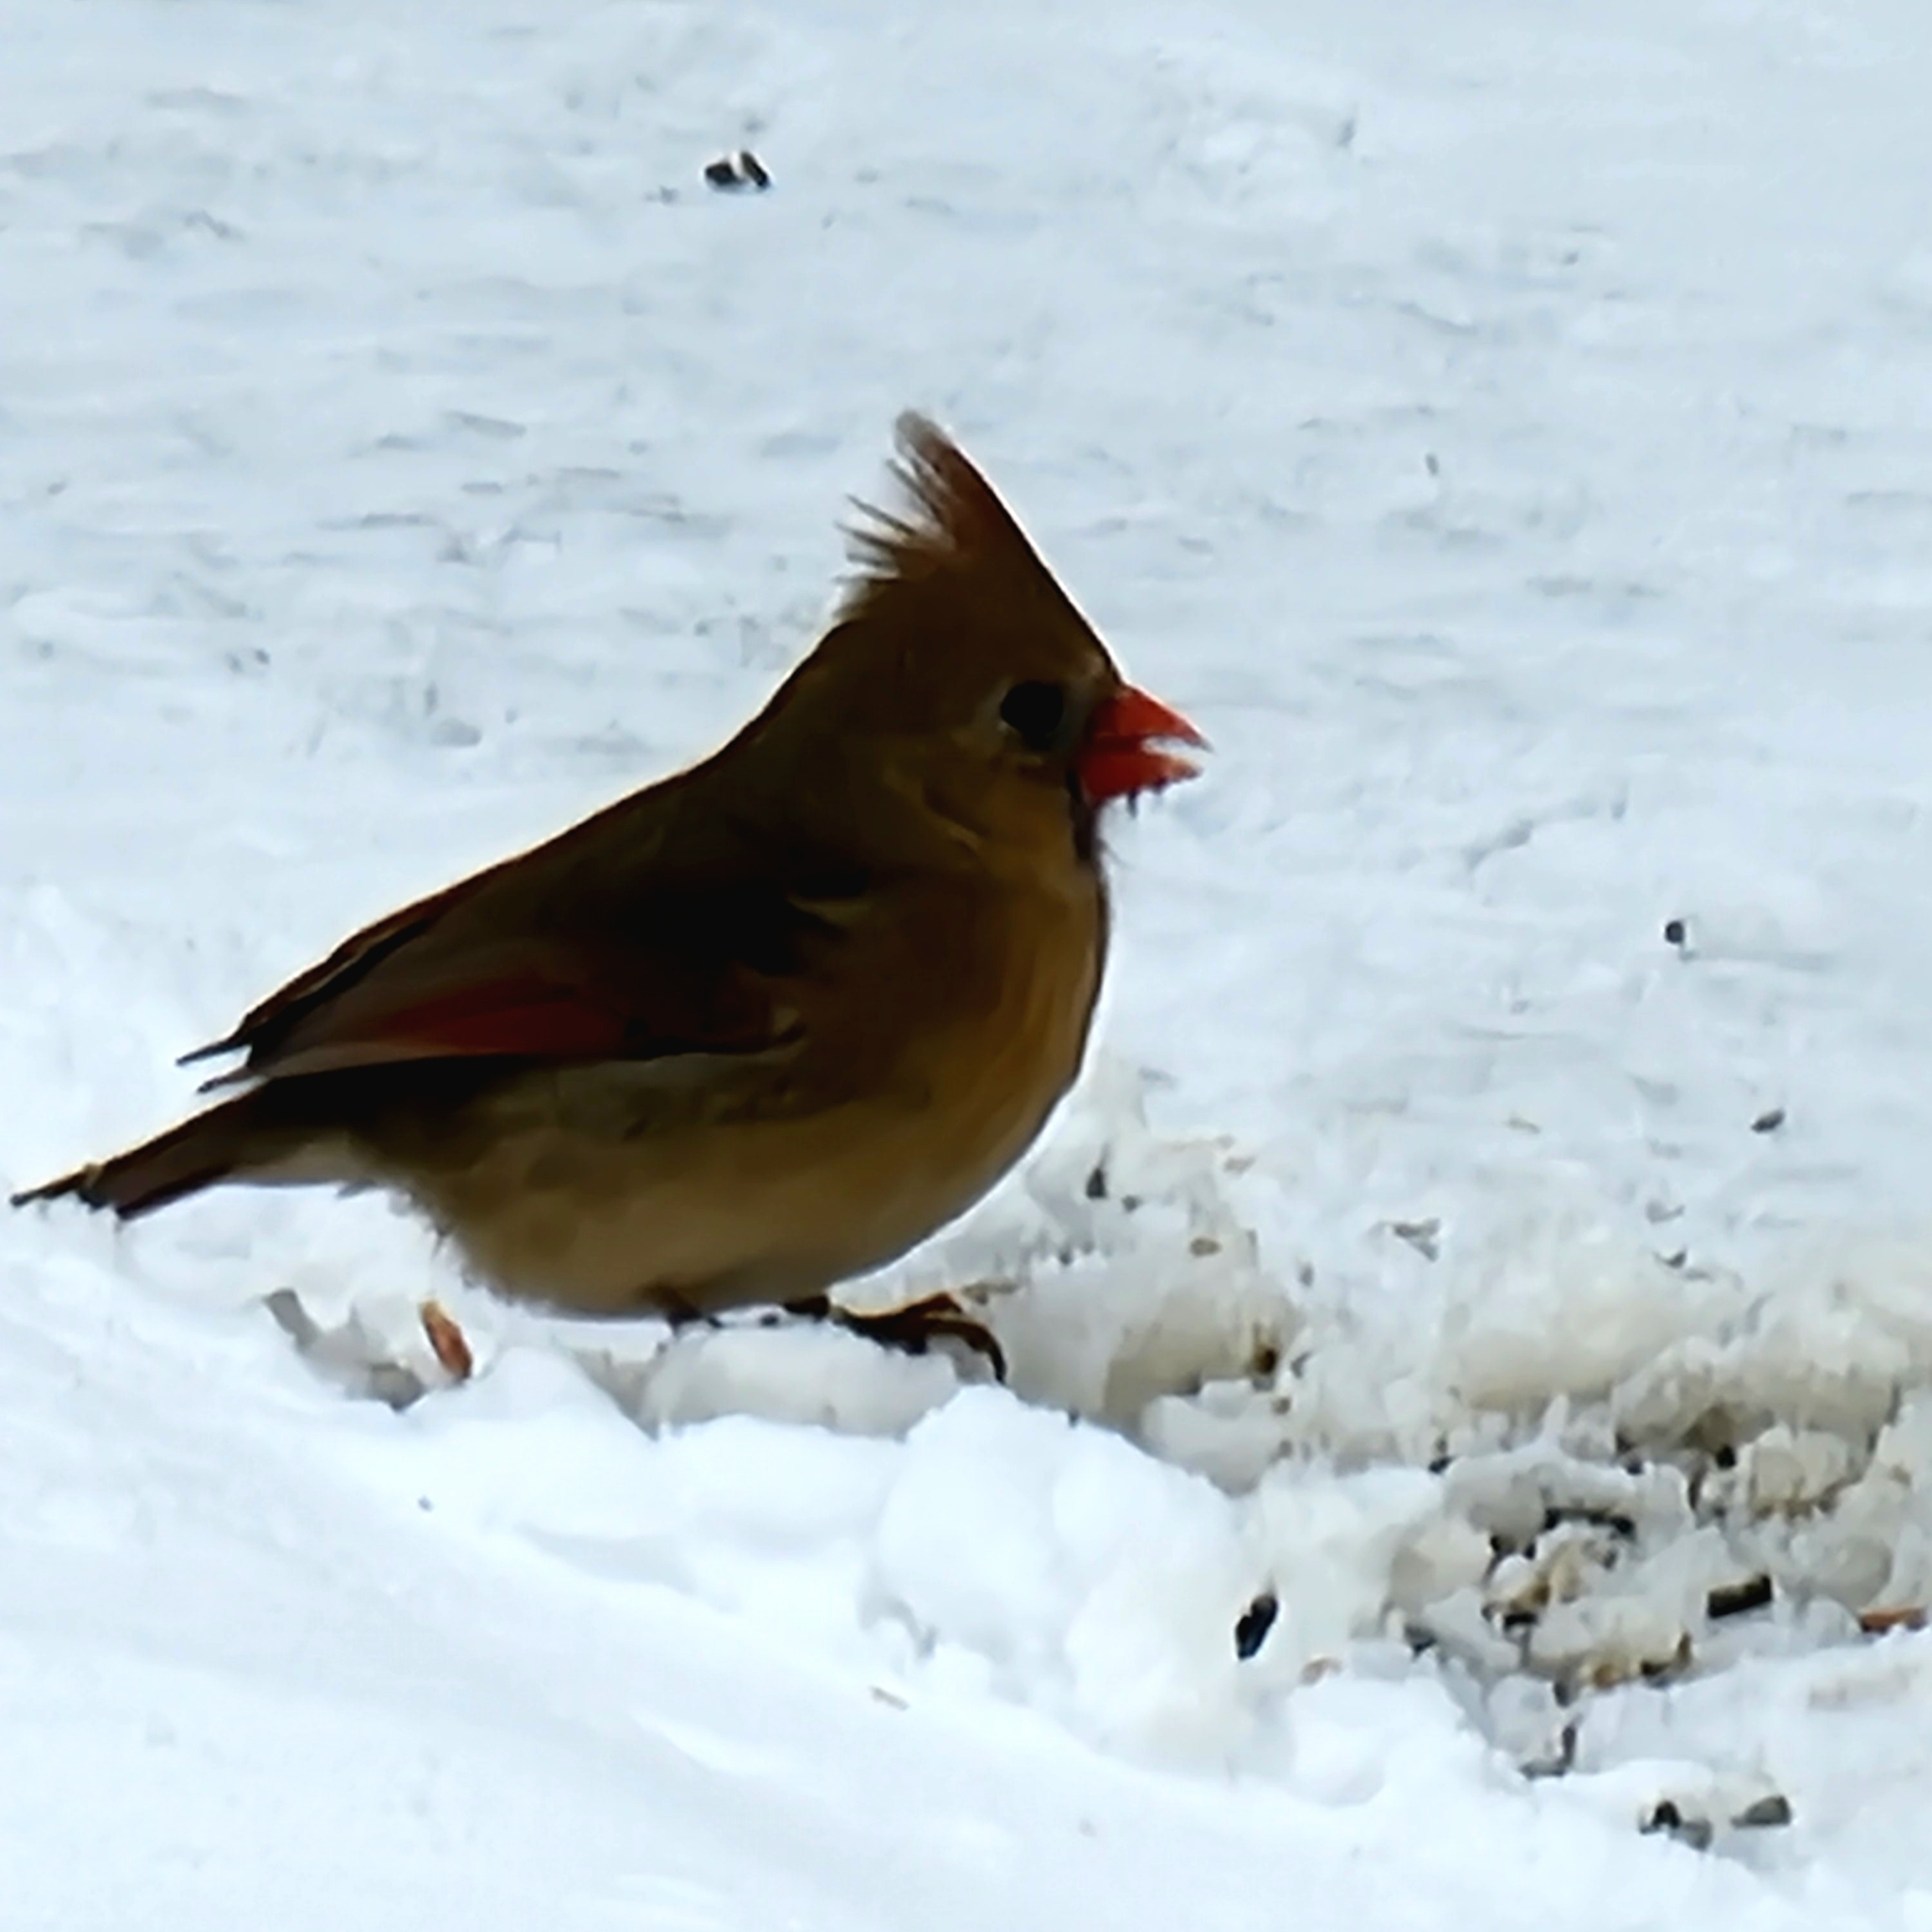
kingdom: Animalia
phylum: Chordata
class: Aves
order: Passeriformes
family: Cardinalidae
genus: Cardinalis
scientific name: Cardinalis cardinalis
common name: Northern cardinal
